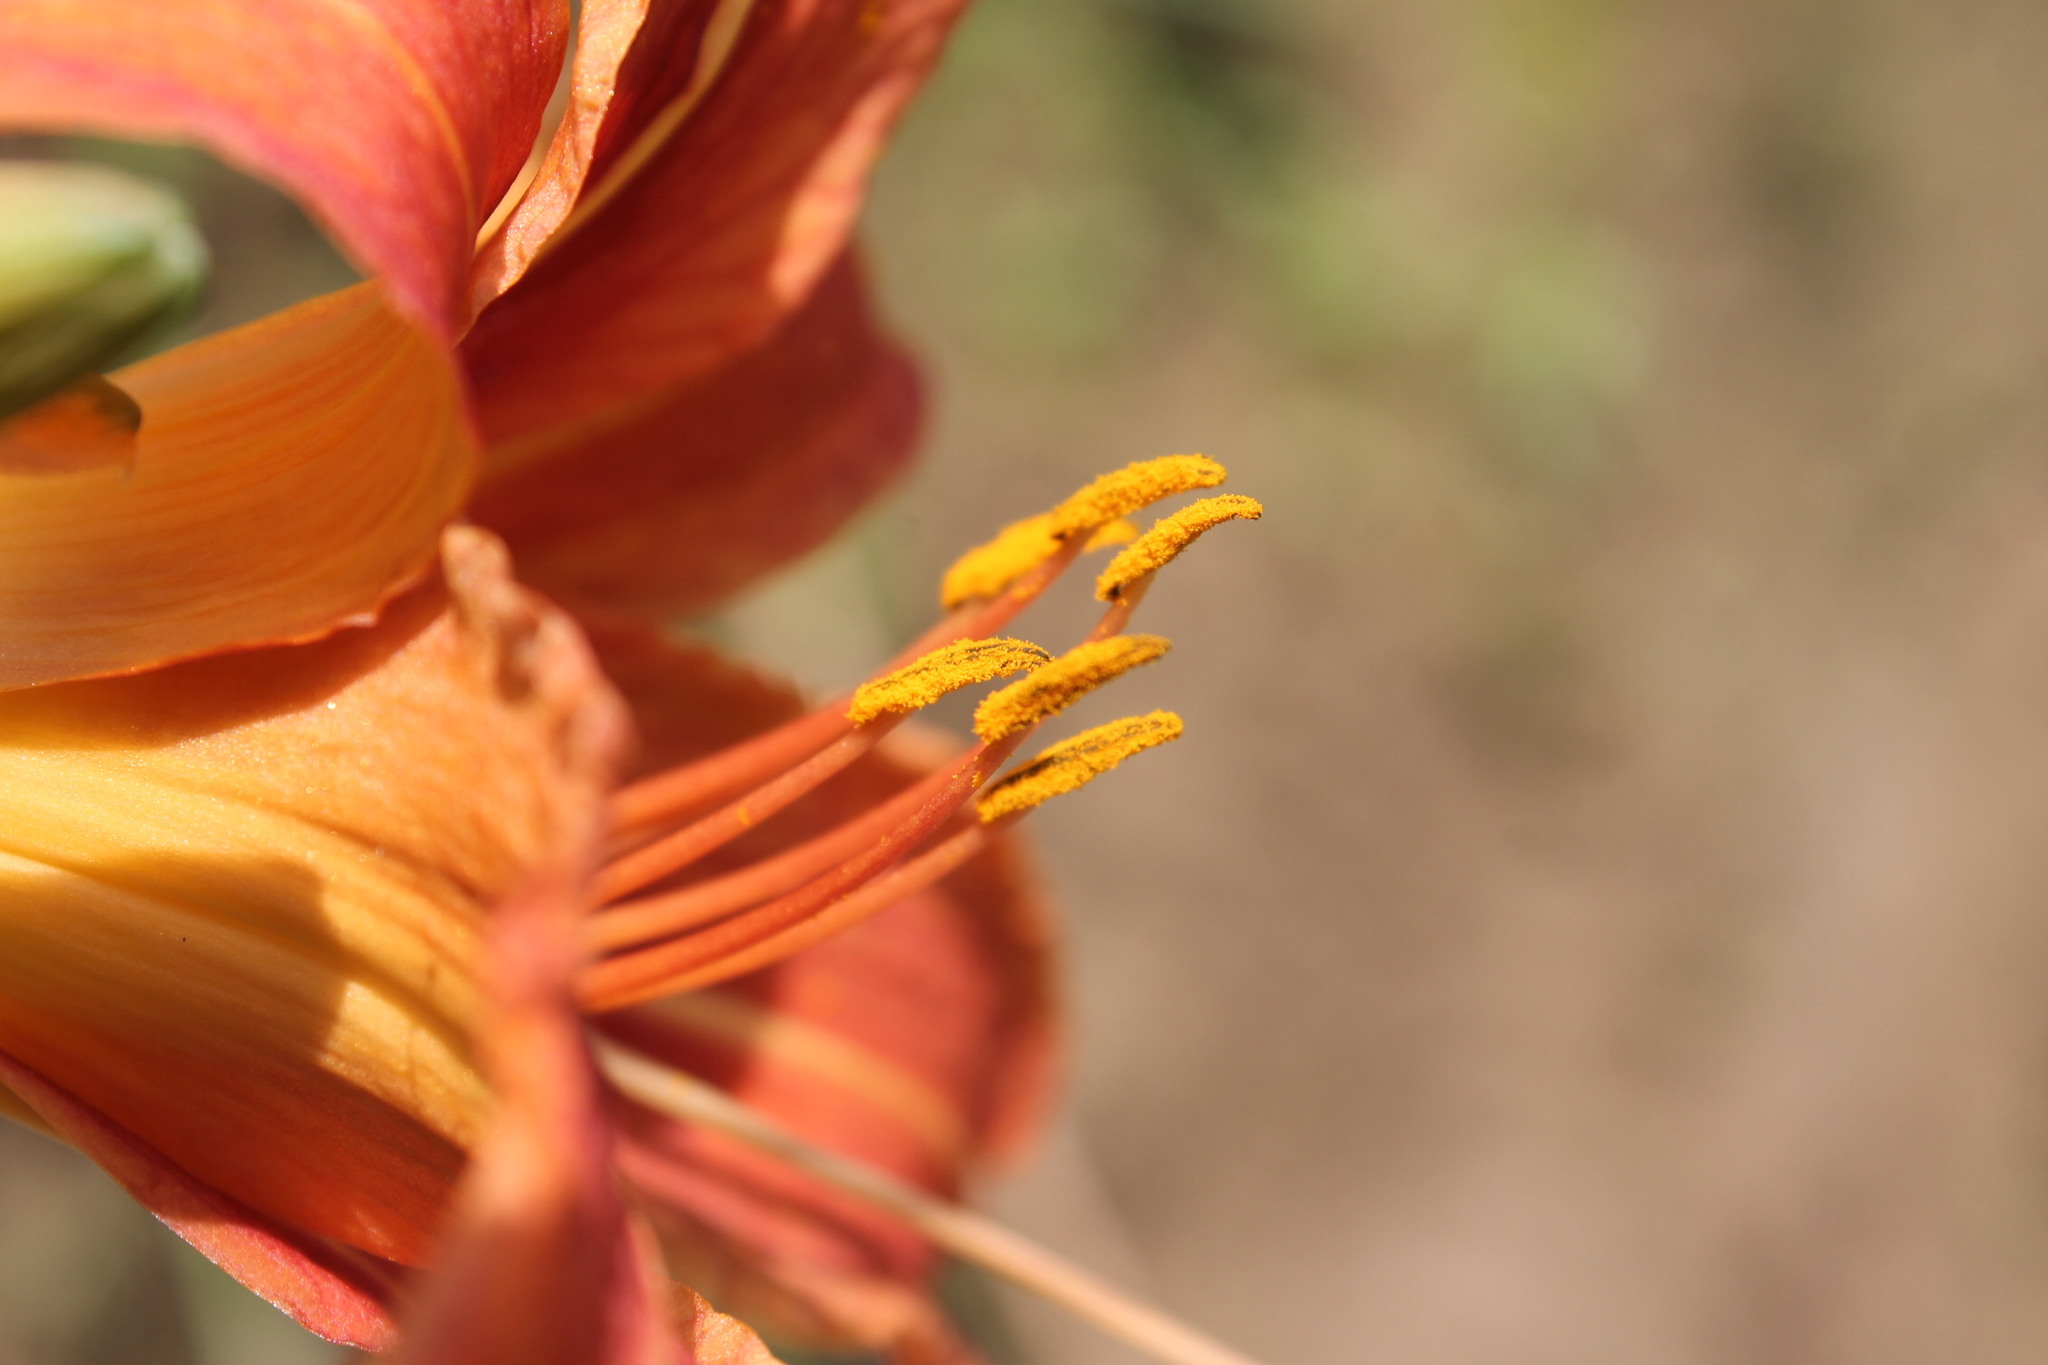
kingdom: Plantae
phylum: Tracheophyta
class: Liliopsida
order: Asparagales
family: Asphodelaceae
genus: Hemerocallis
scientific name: Hemerocallis fulva
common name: Orange day-lily
